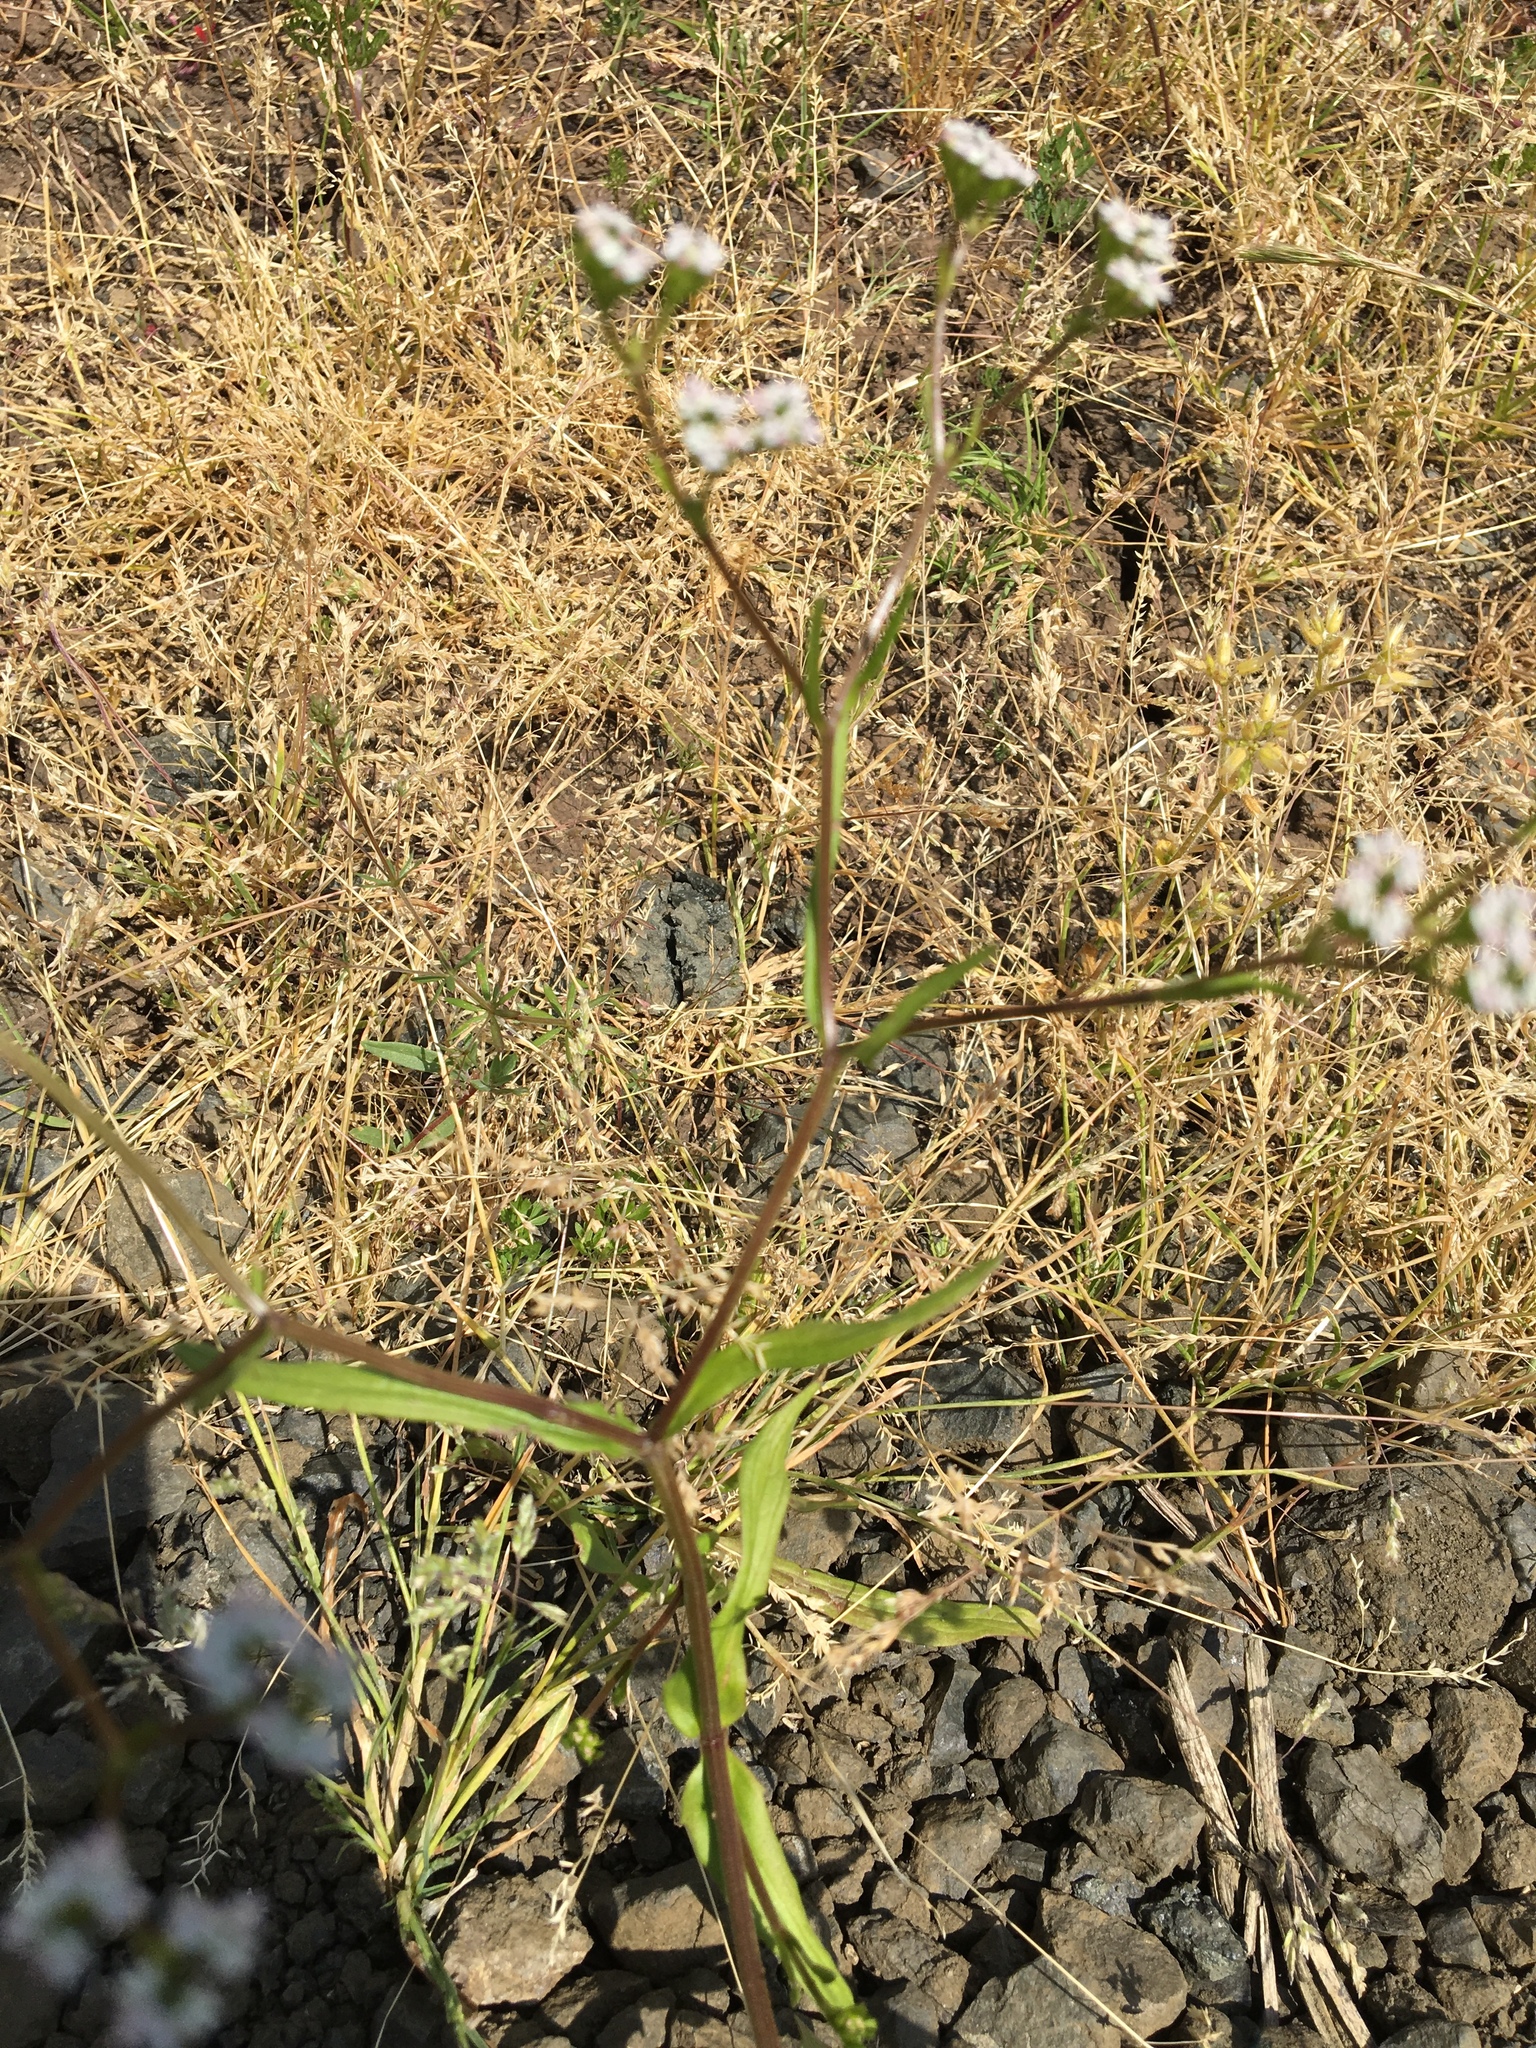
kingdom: Plantae
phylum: Tracheophyta
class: Magnoliopsida
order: Dipsacales
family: Caprifoliaceae
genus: Valerianella
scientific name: Valerianella locusta
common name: Common cornsalad
